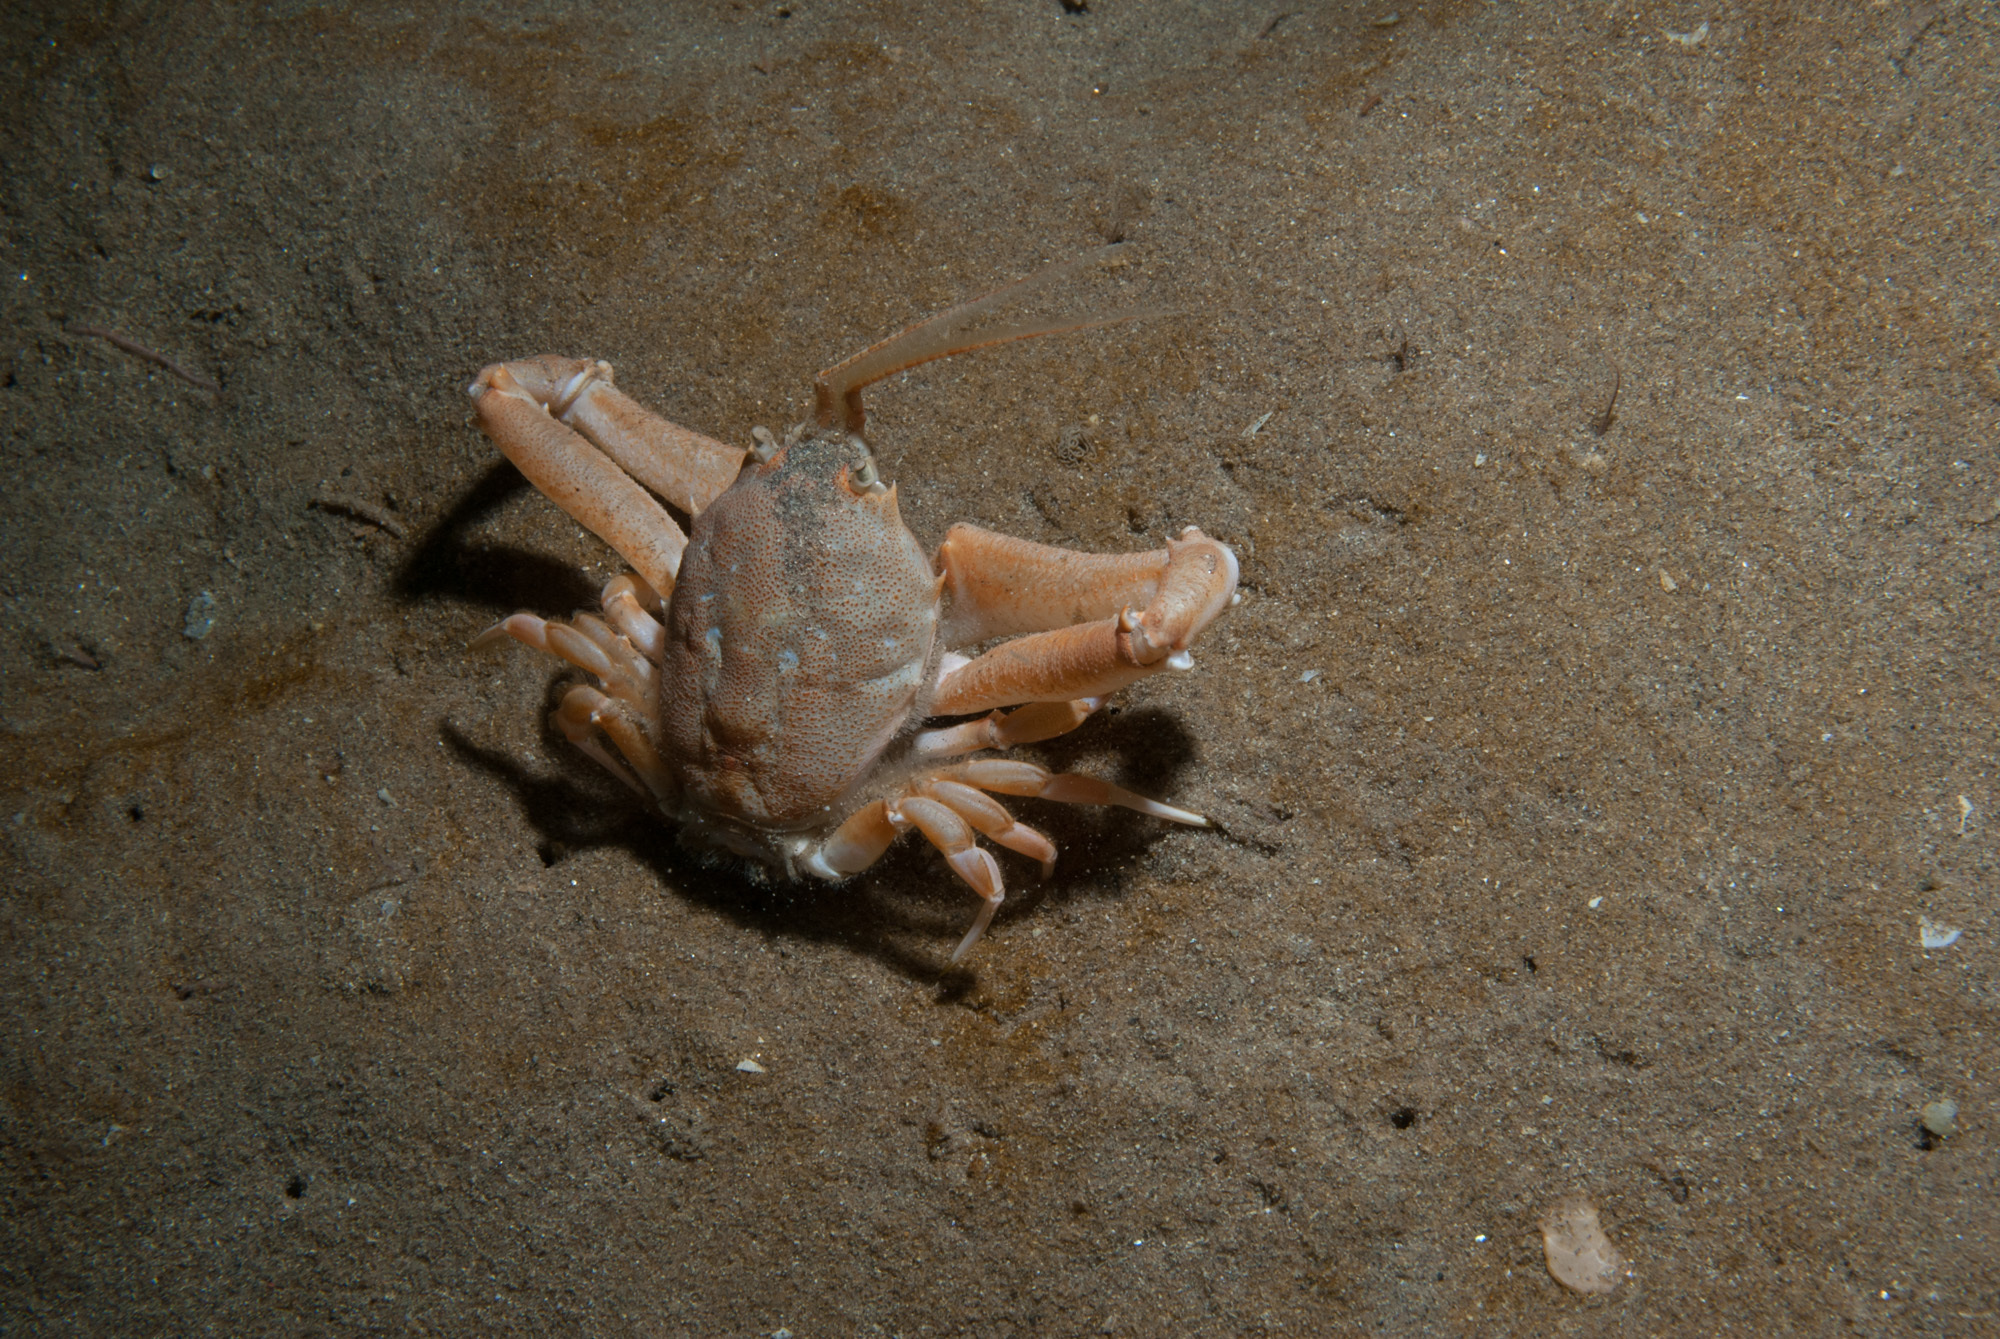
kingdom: Animalia
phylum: Arthropoda
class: Malacostraca
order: Decapoda
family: Corystidae
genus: Corystes
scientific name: Corystes cassivelaunus
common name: Masked crab
